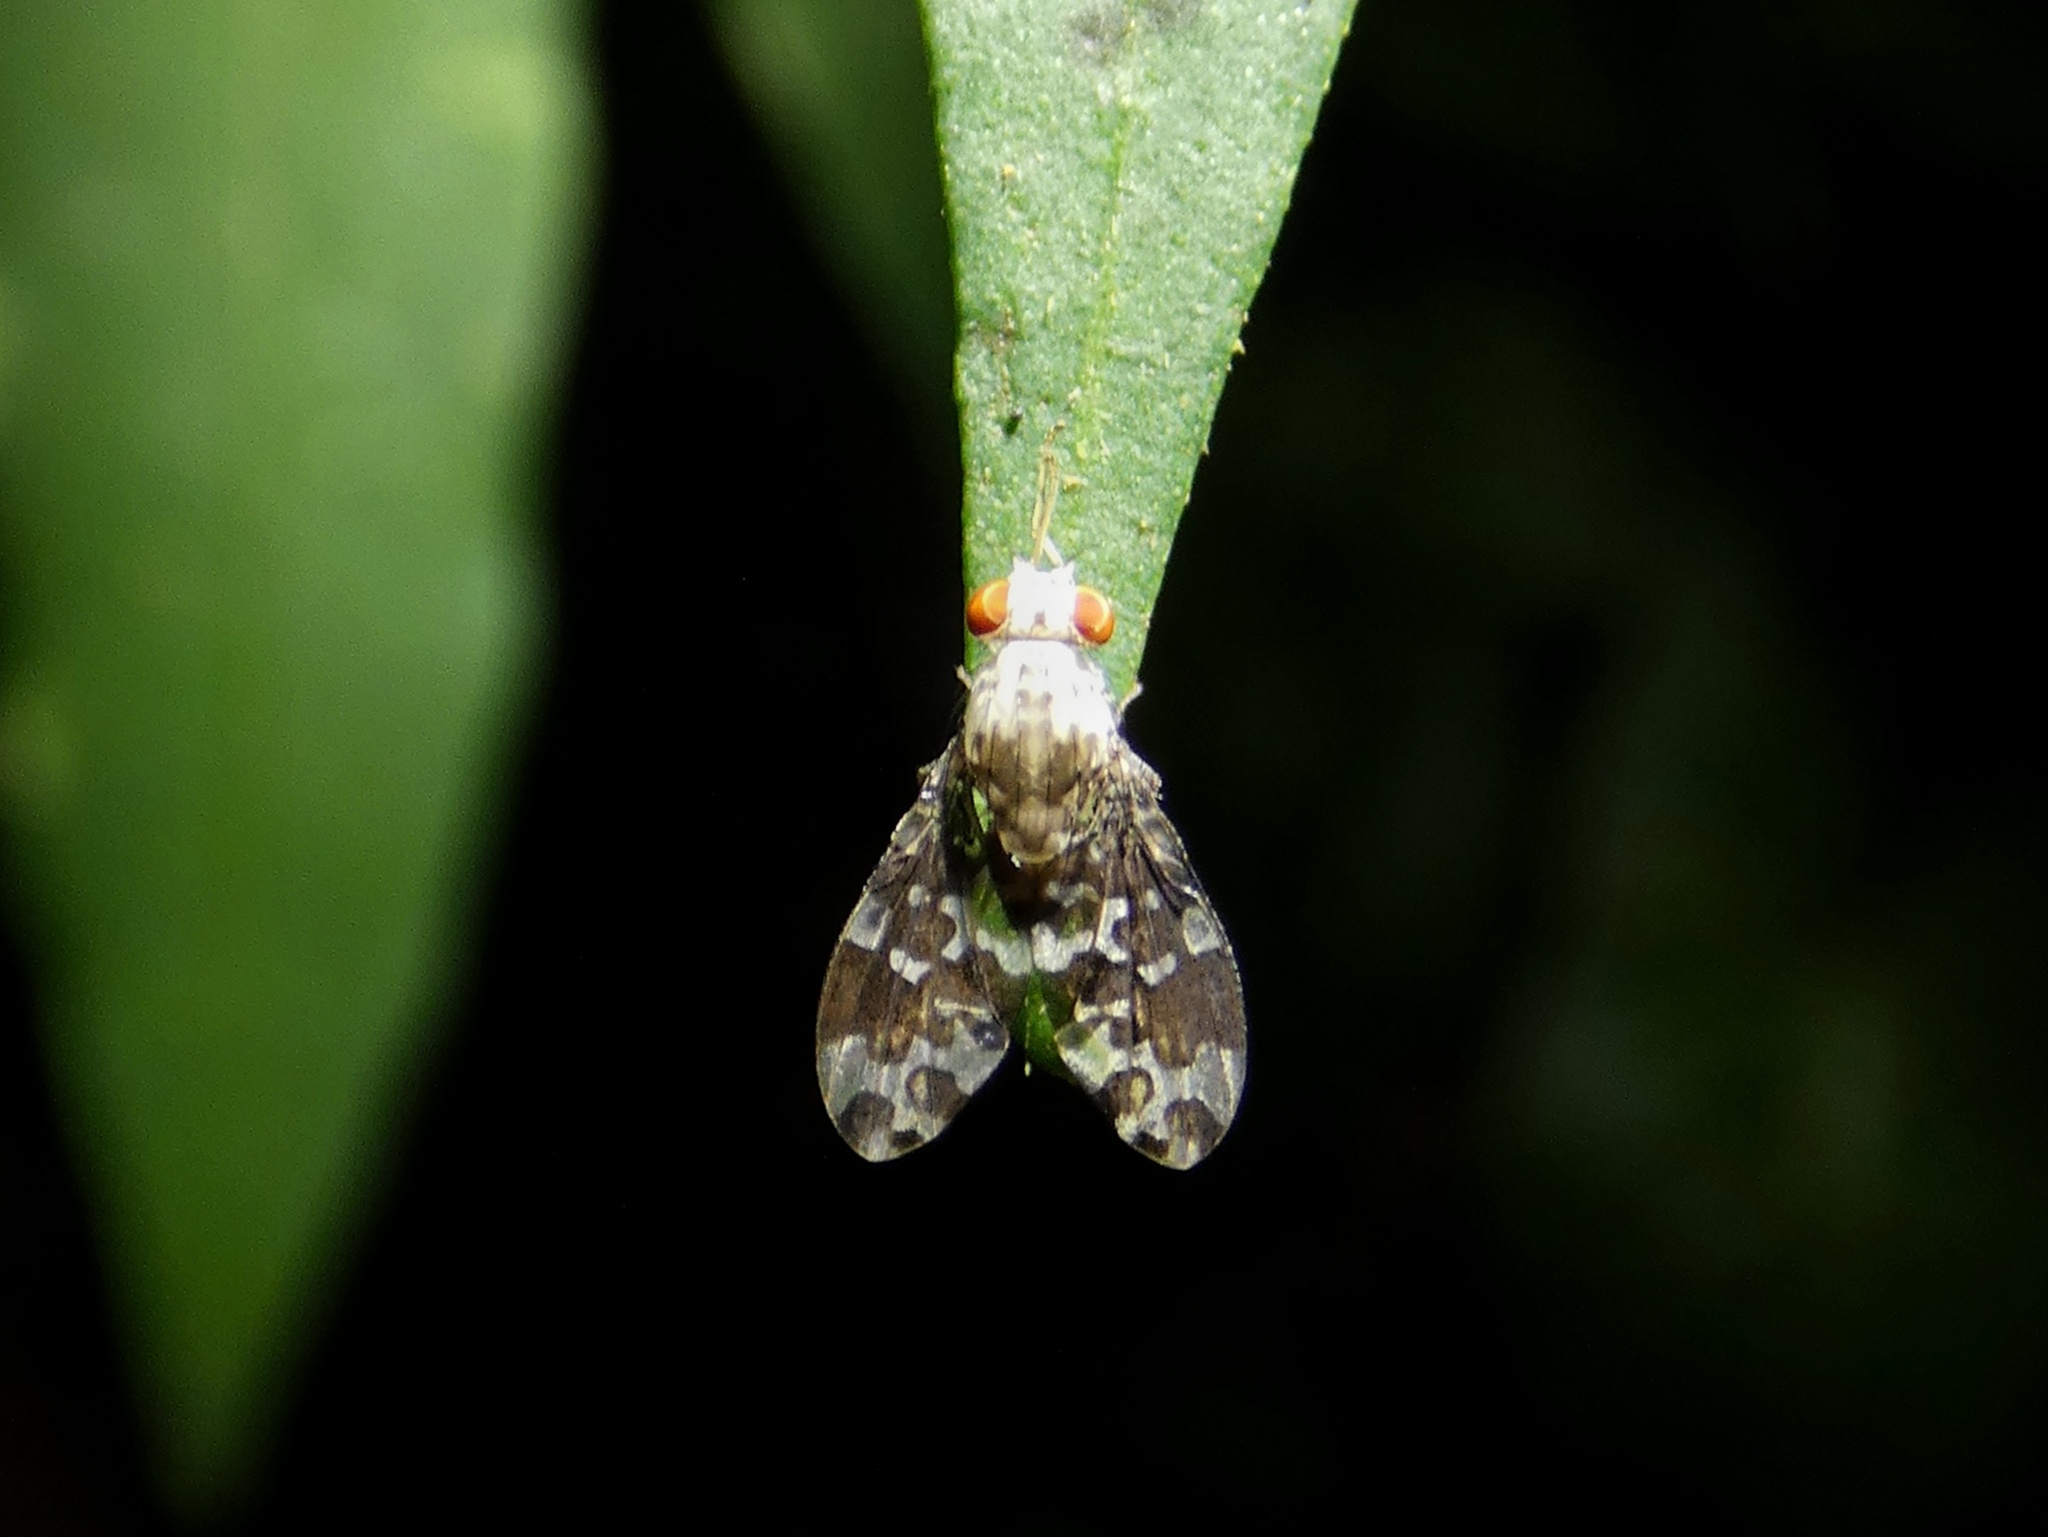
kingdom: Animalia
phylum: Arthropoda
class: Insecta
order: Diptera
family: Lauxaniidae
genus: Mettinia
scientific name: Mettinia suboceliifera
